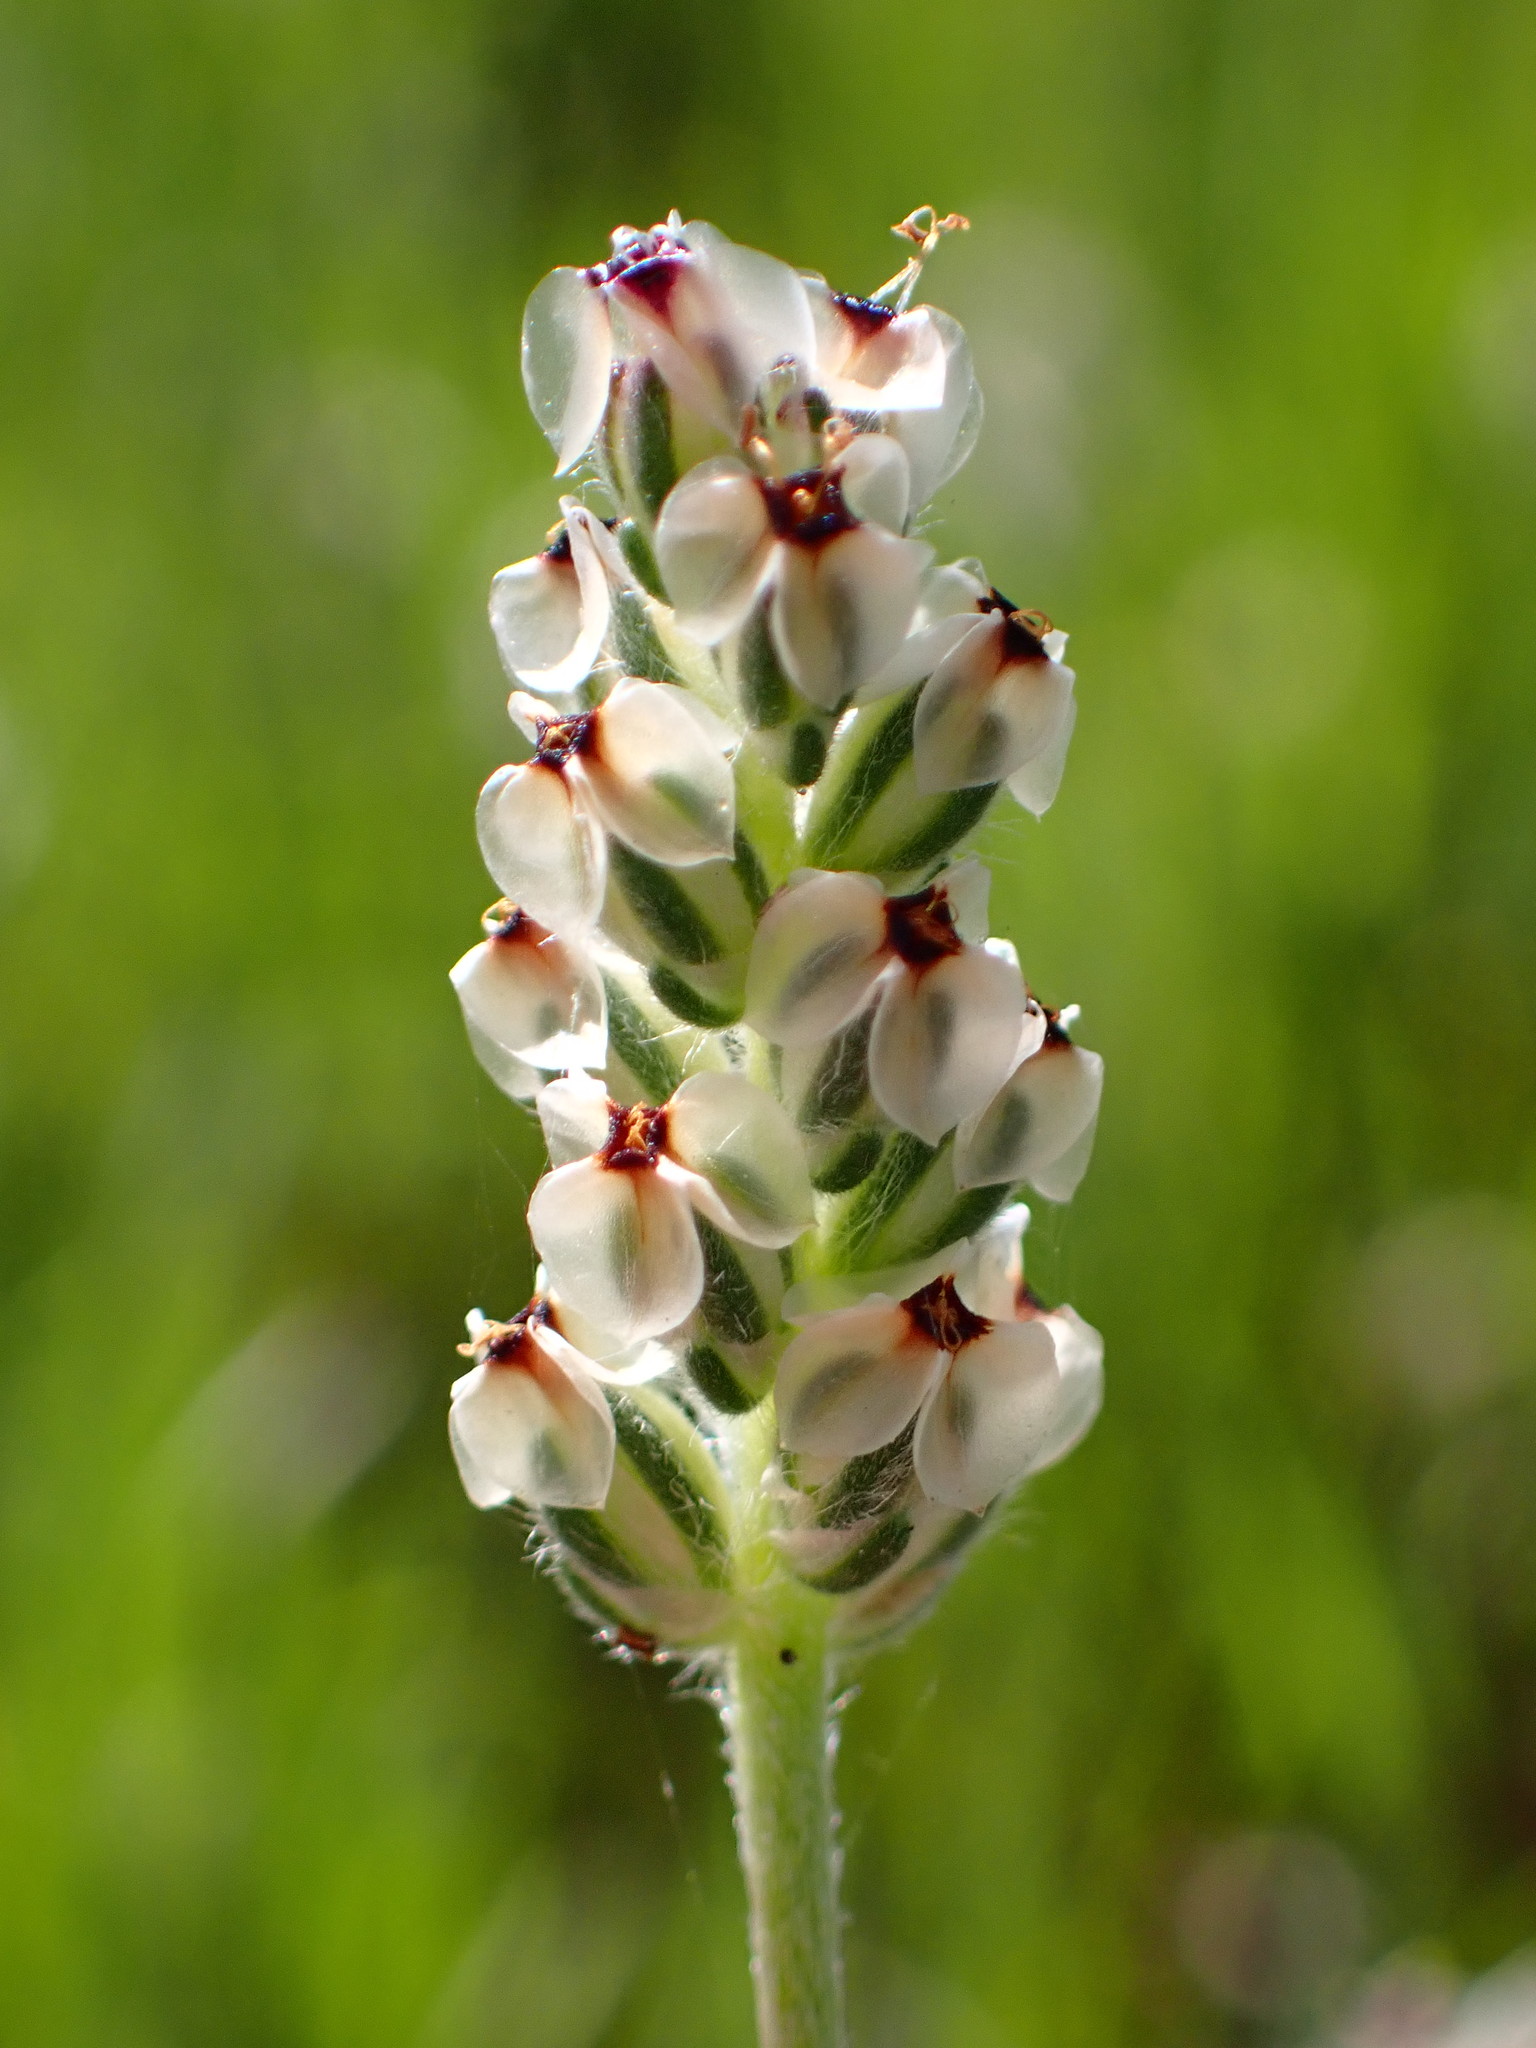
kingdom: Plantae
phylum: Tracheophyta
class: Magnoliopsida
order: Lamiales
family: Plantaginaceae
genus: Plantago
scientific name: Plantago erecta
